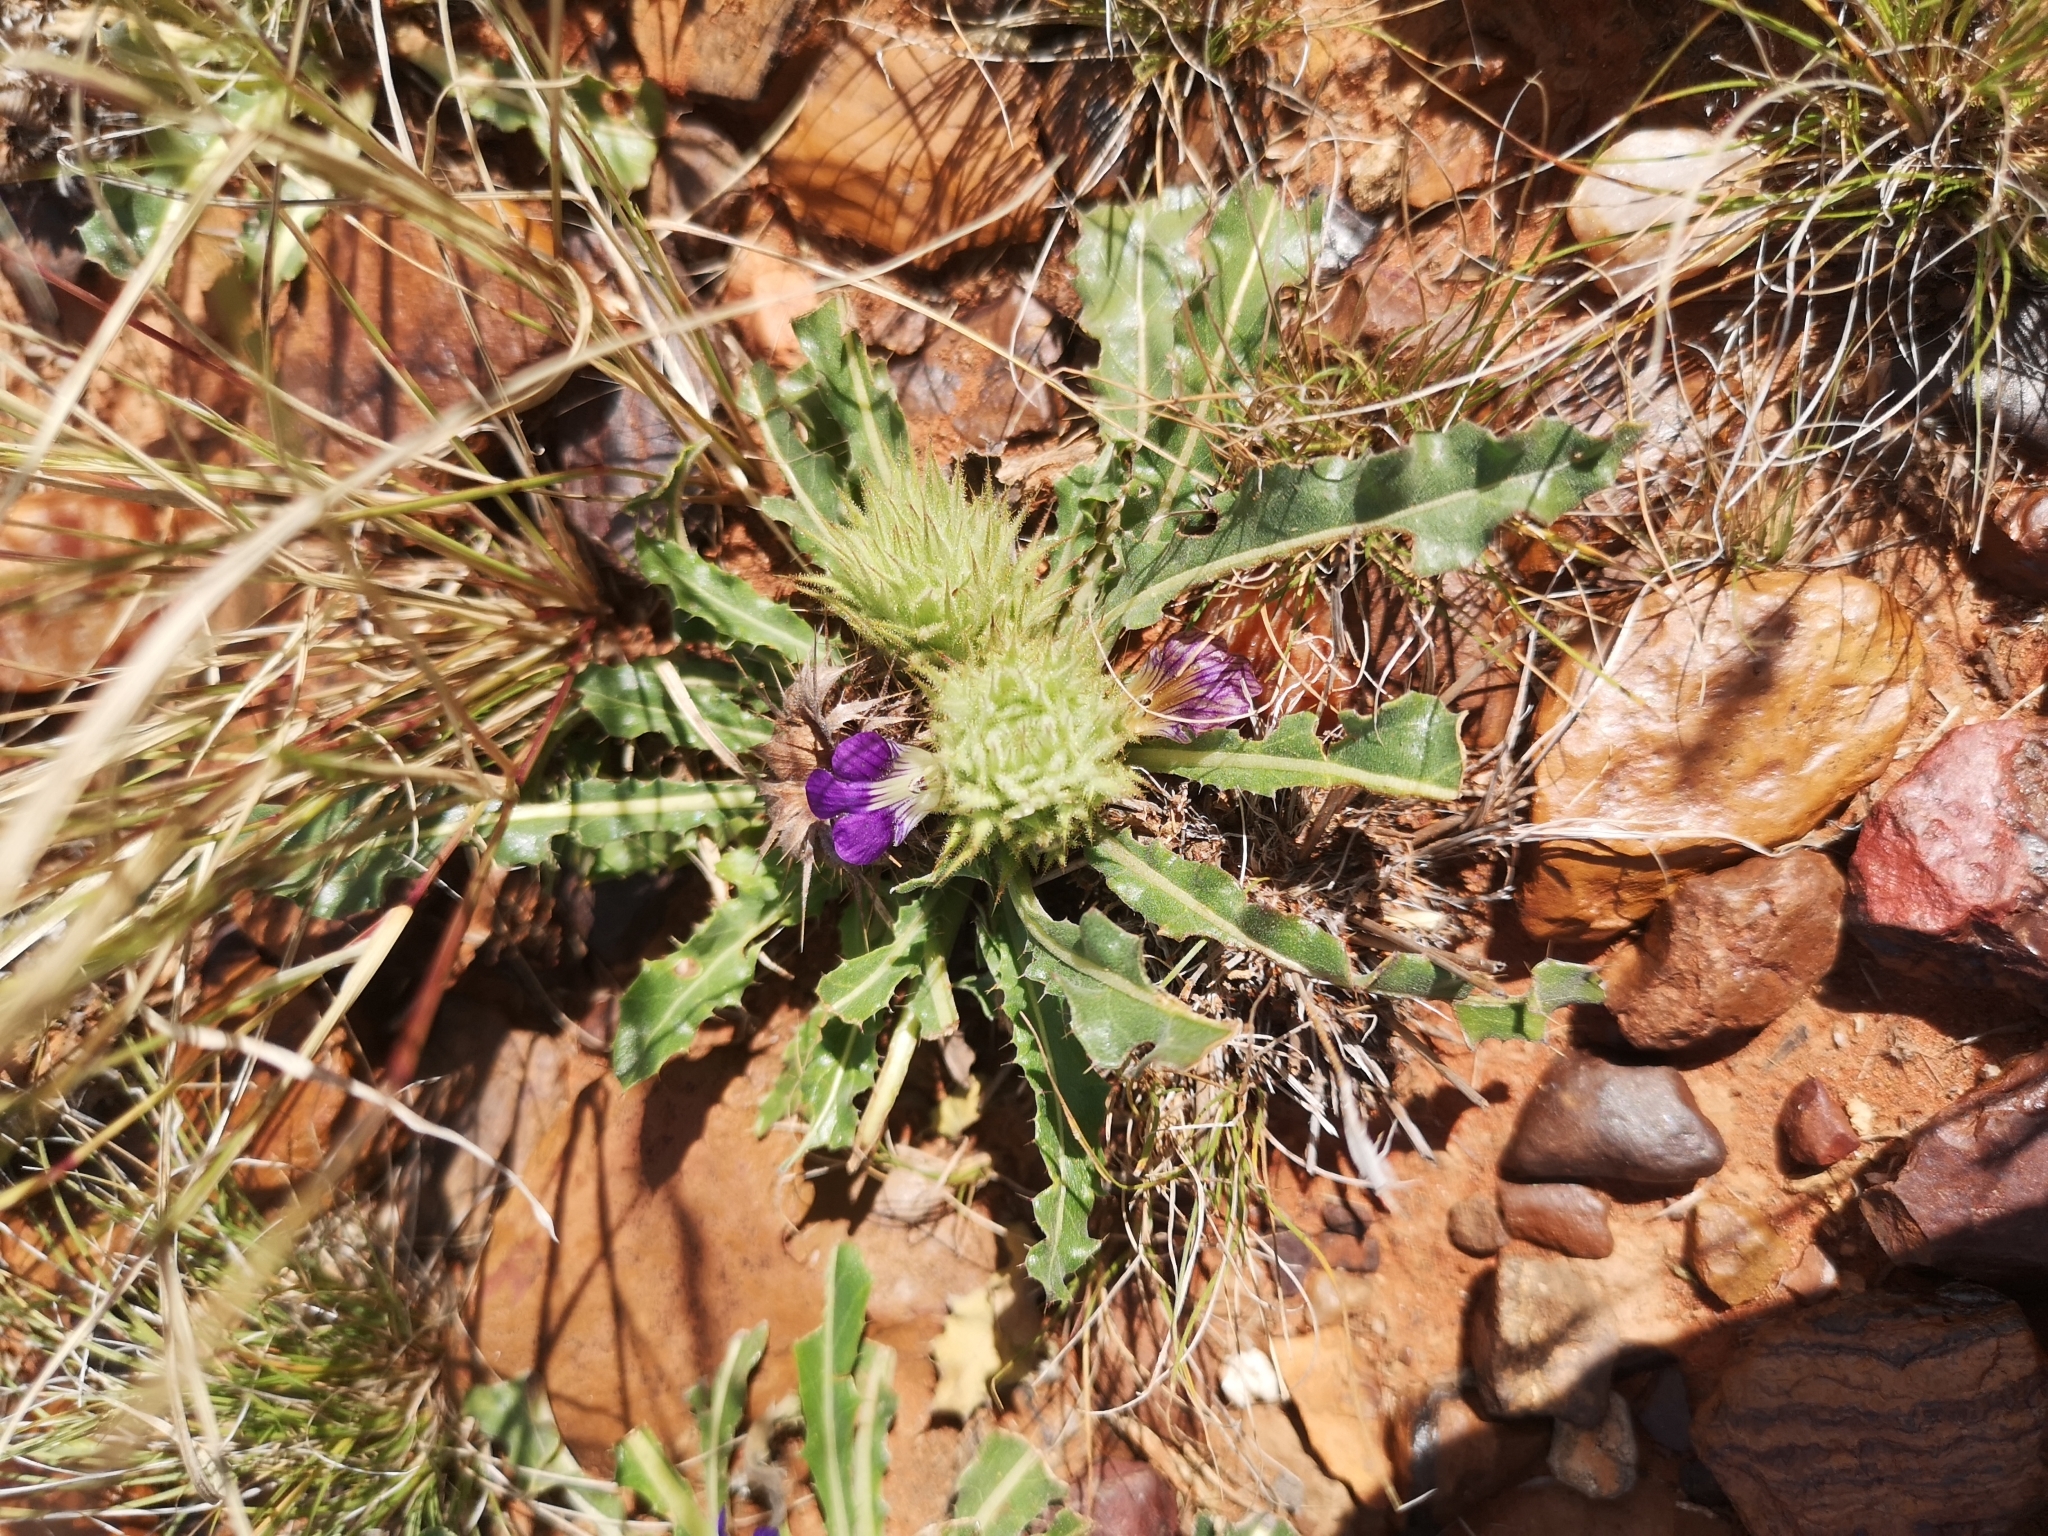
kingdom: Plantae
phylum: Tracheophyta
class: Magnoliopsida
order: Lamiales
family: Acanthaceae
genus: Acanthopsis
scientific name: Acanthopsis hoffmannseggiana
